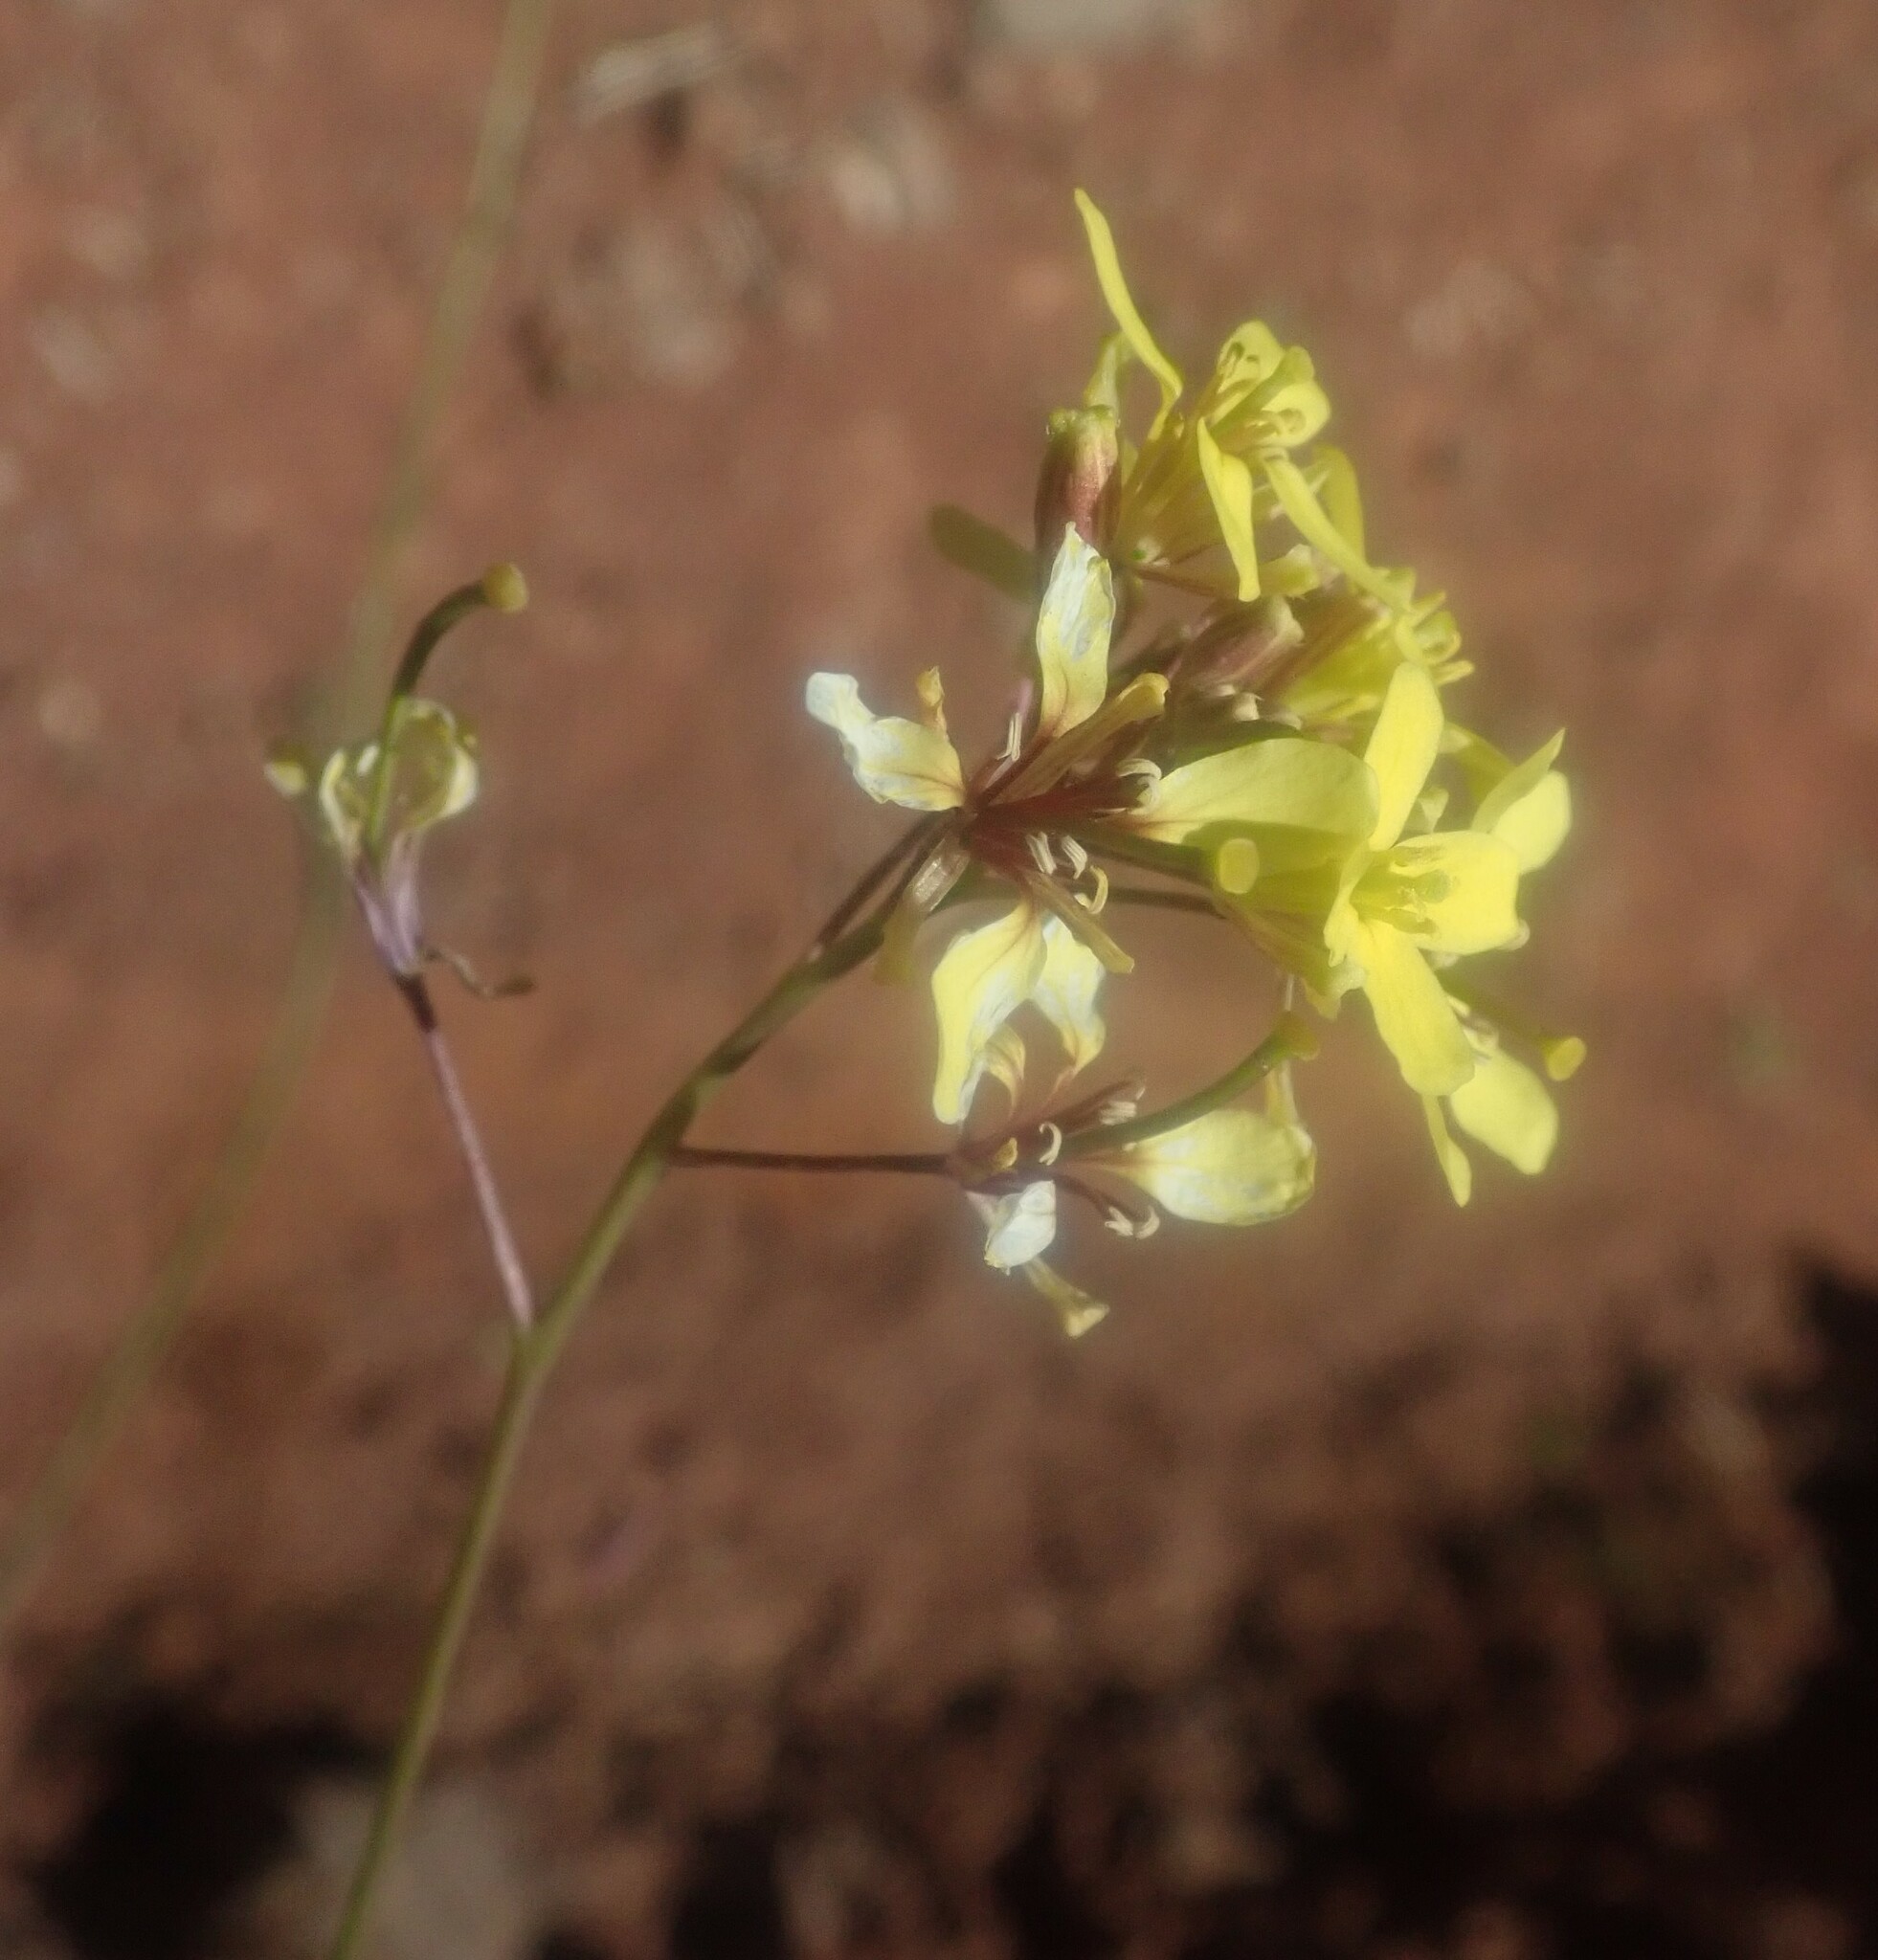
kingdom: Plantae
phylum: Tracheophyta
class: Magnoliopsida
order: Brassicales
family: Brassicaceae
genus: Sinapidendron
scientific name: Sinapidendron frutescens
